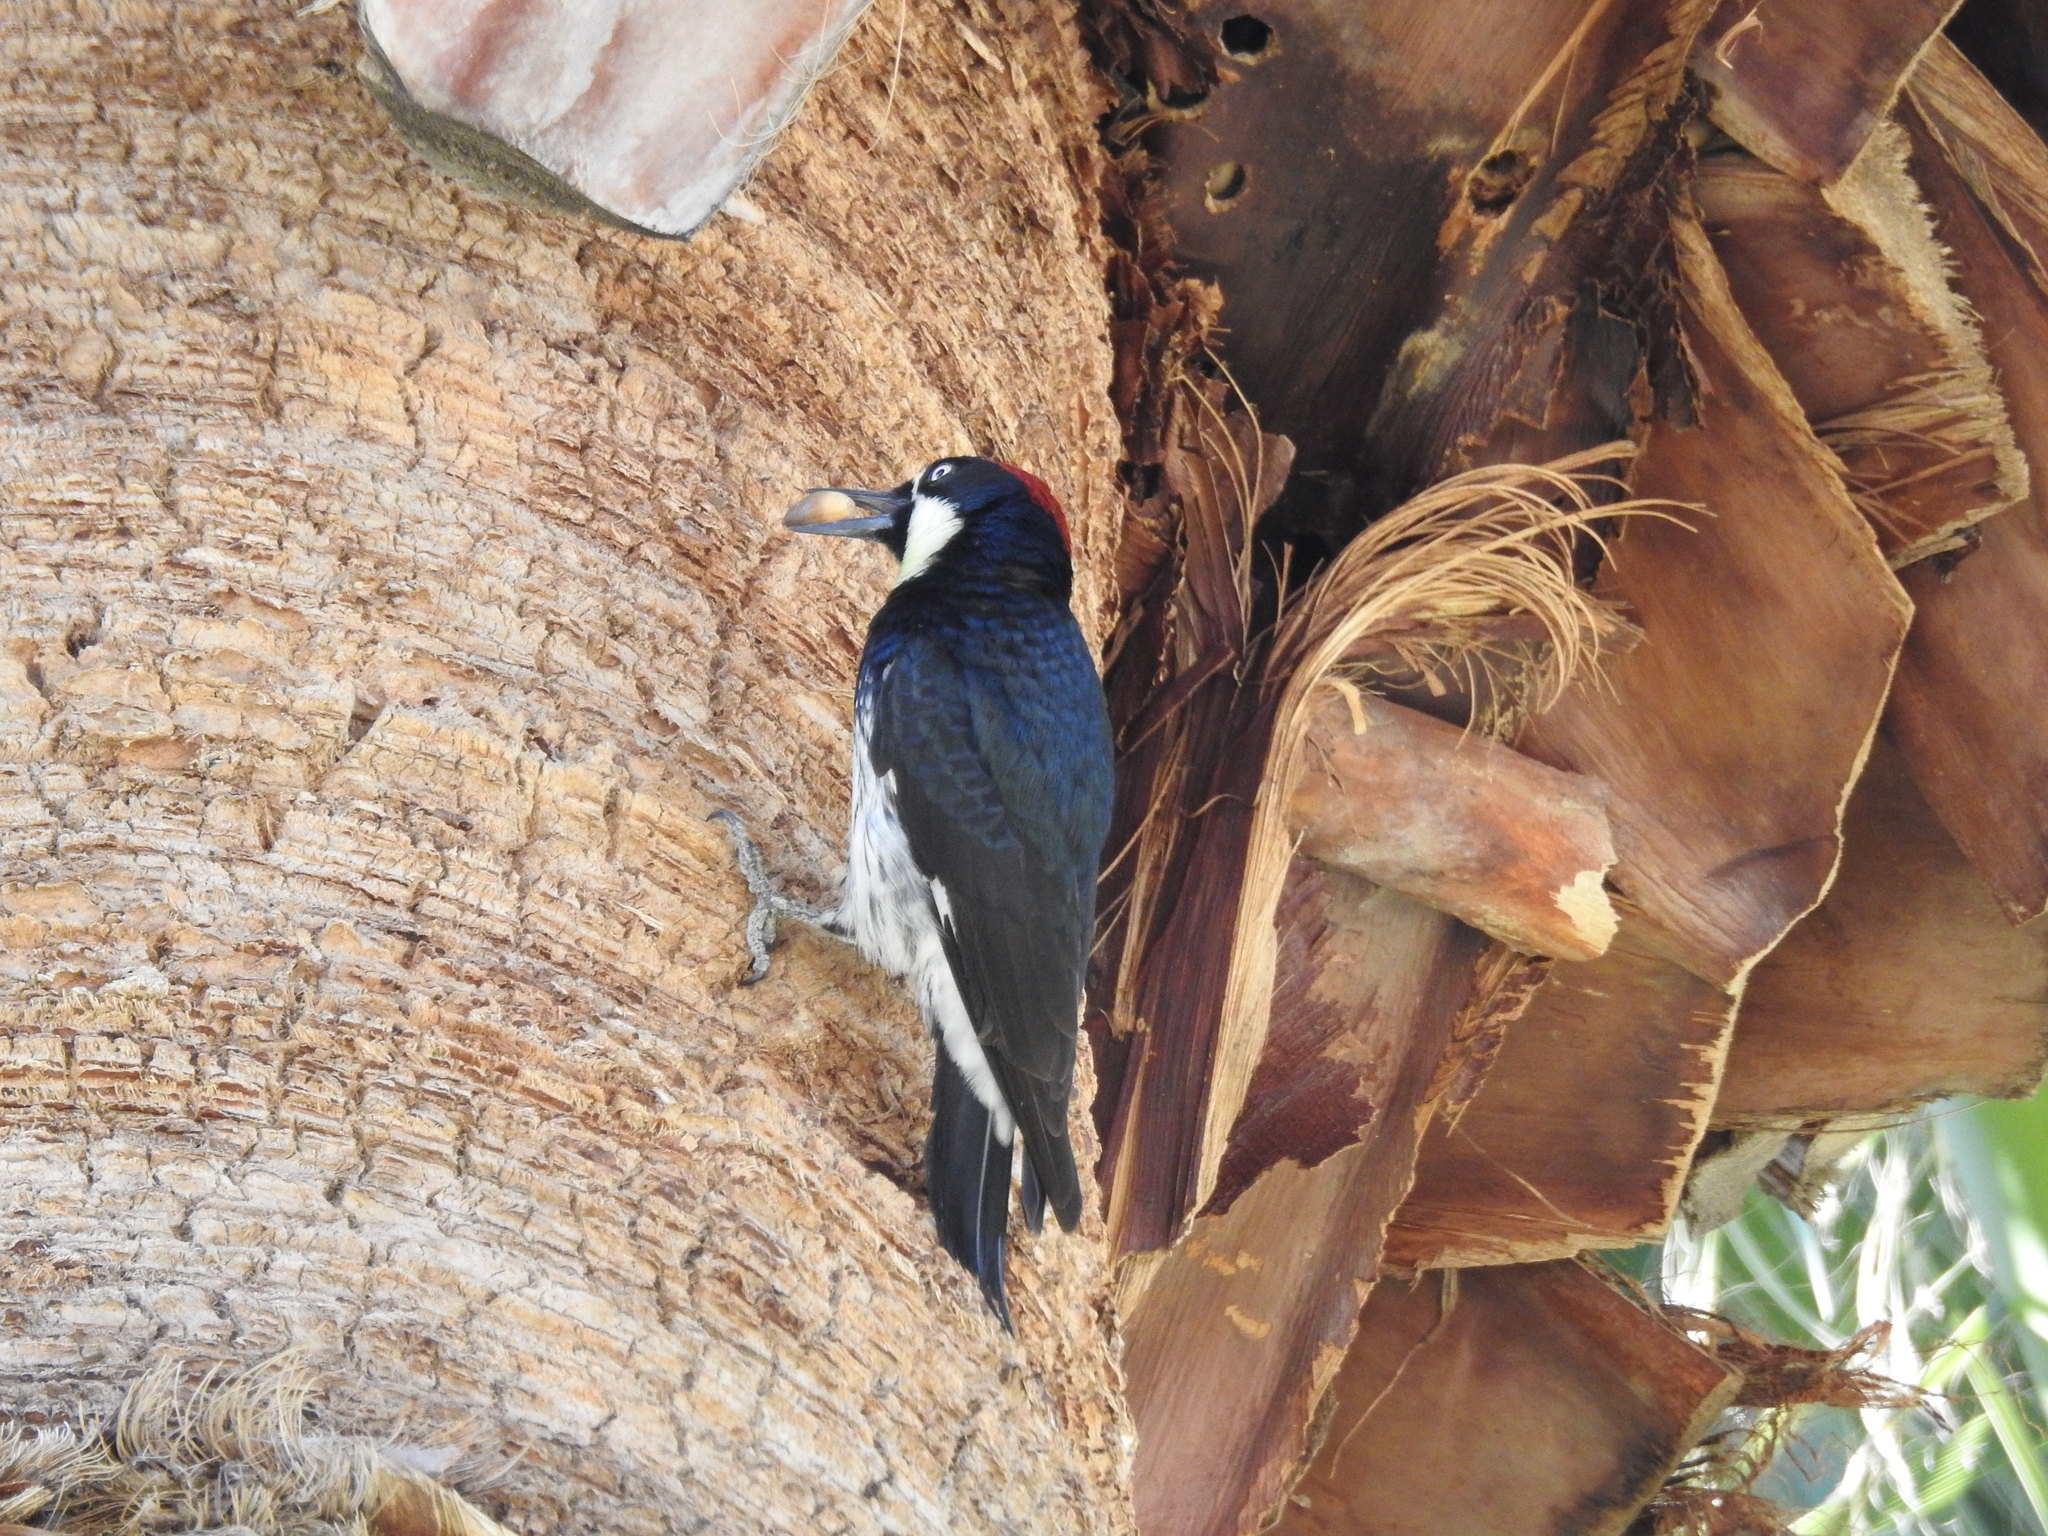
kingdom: Animalia
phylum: Chordata
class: Aves
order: Piciformes
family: Picidae
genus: Melanerpes
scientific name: Melanerpes formicivorus
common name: Acorn woodpecker
